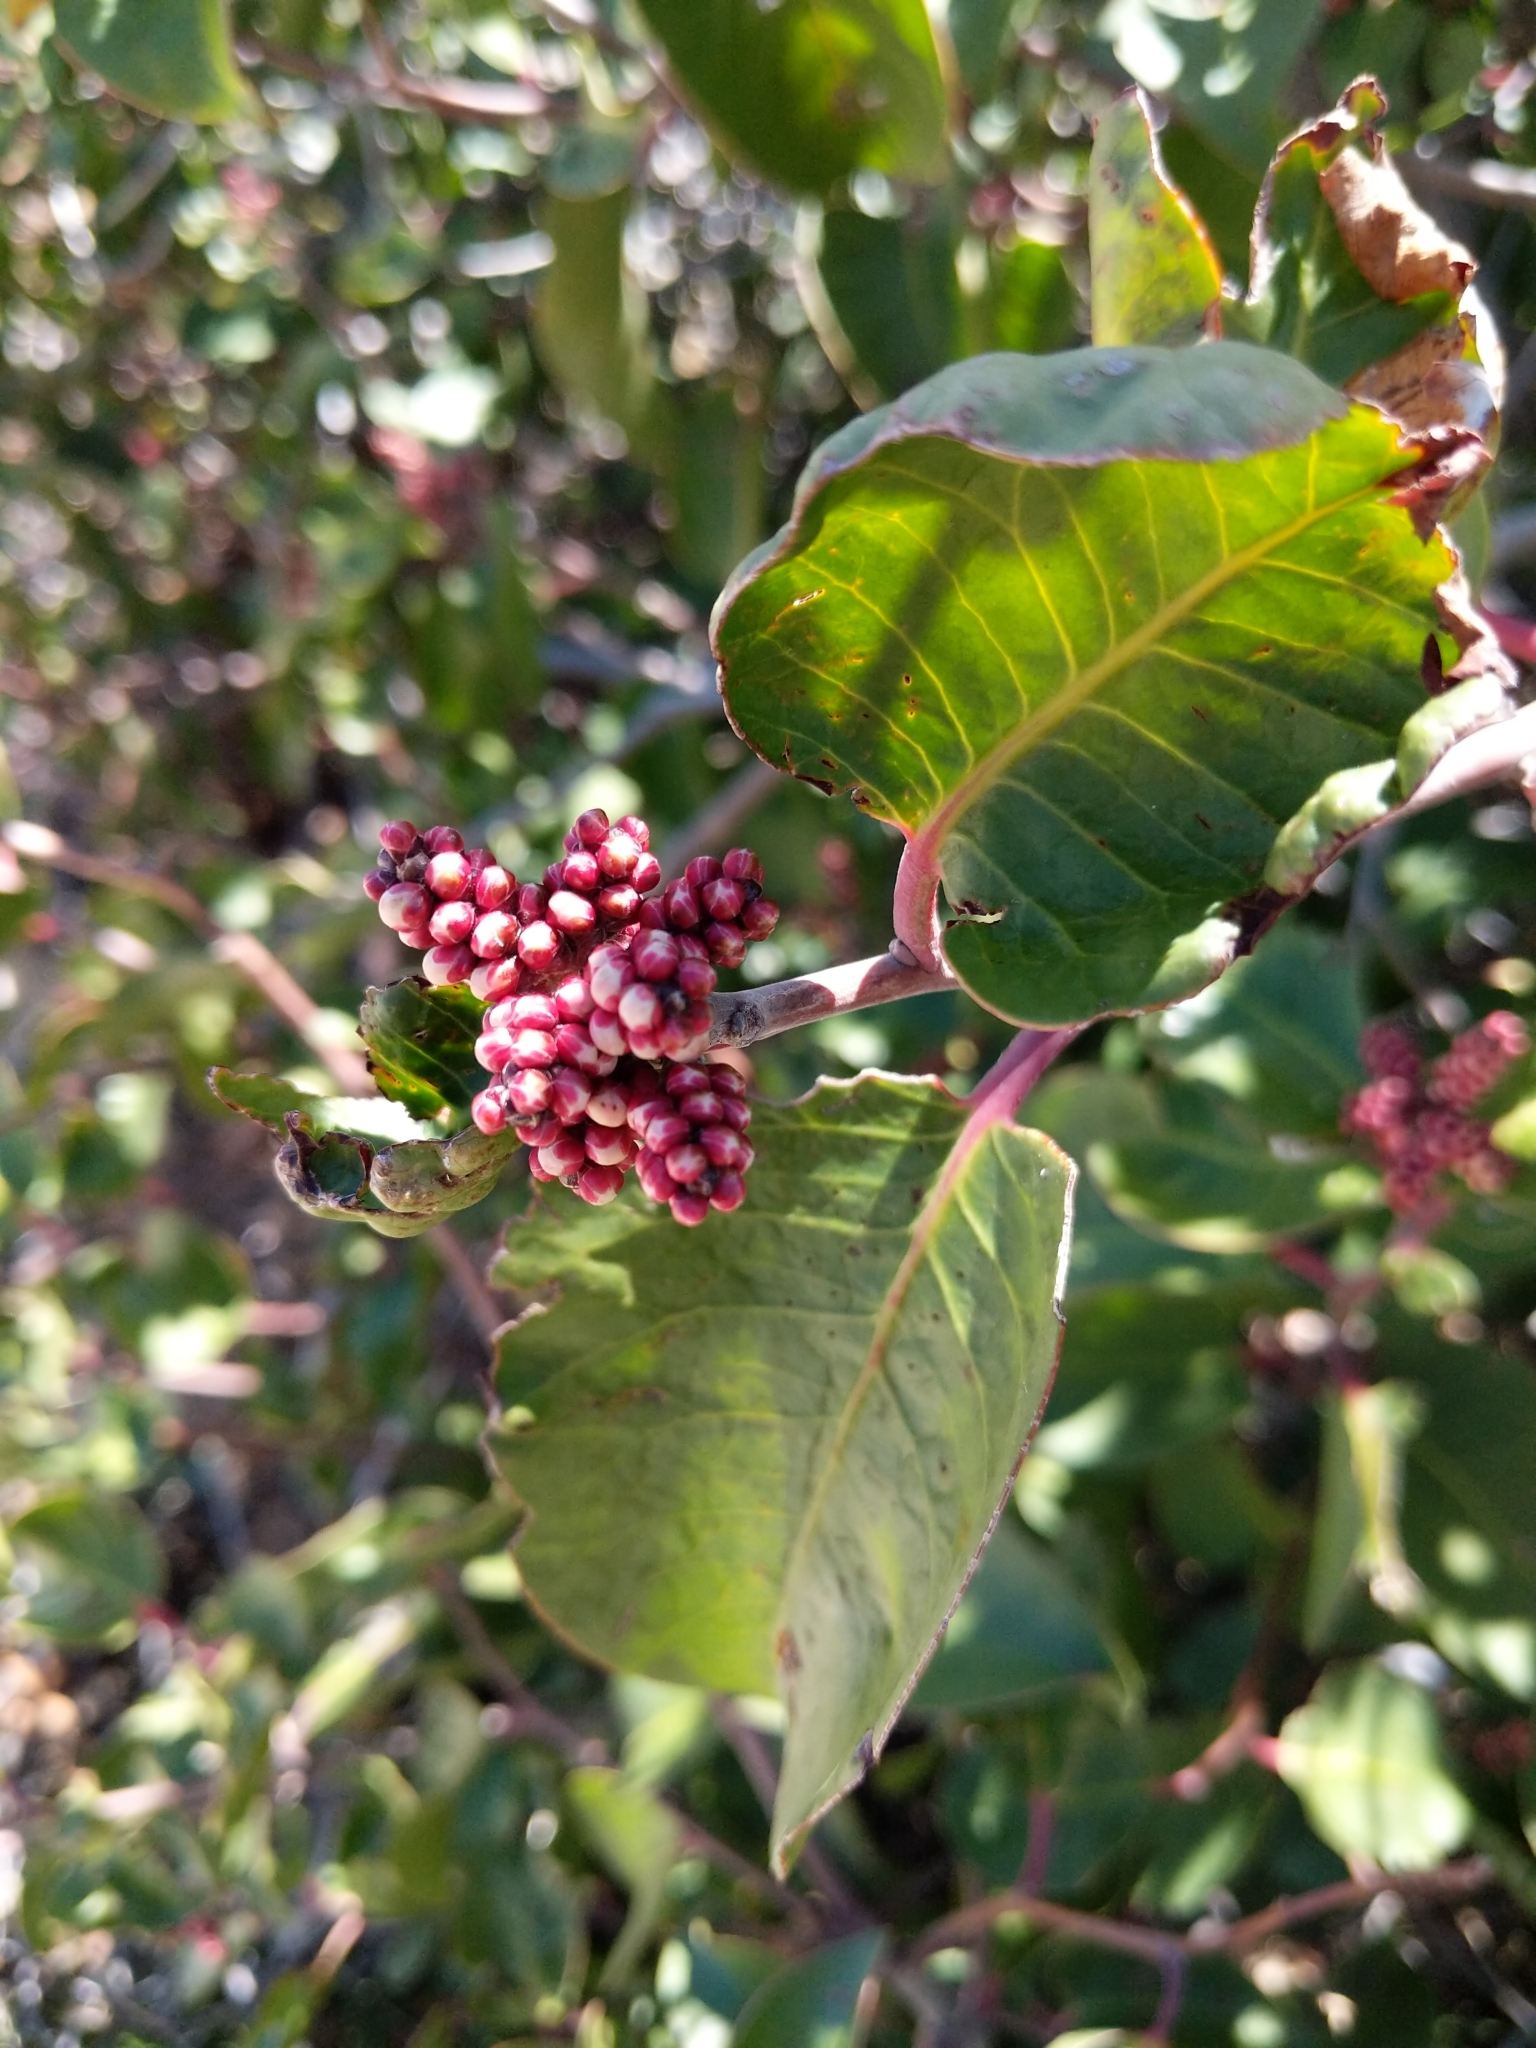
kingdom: Plantae
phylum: Tracheophyta
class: Magnoliopsida
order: Sapindales
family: Anacardiaceae
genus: Rhus
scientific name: Rhus ovata
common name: Sugar sumac
